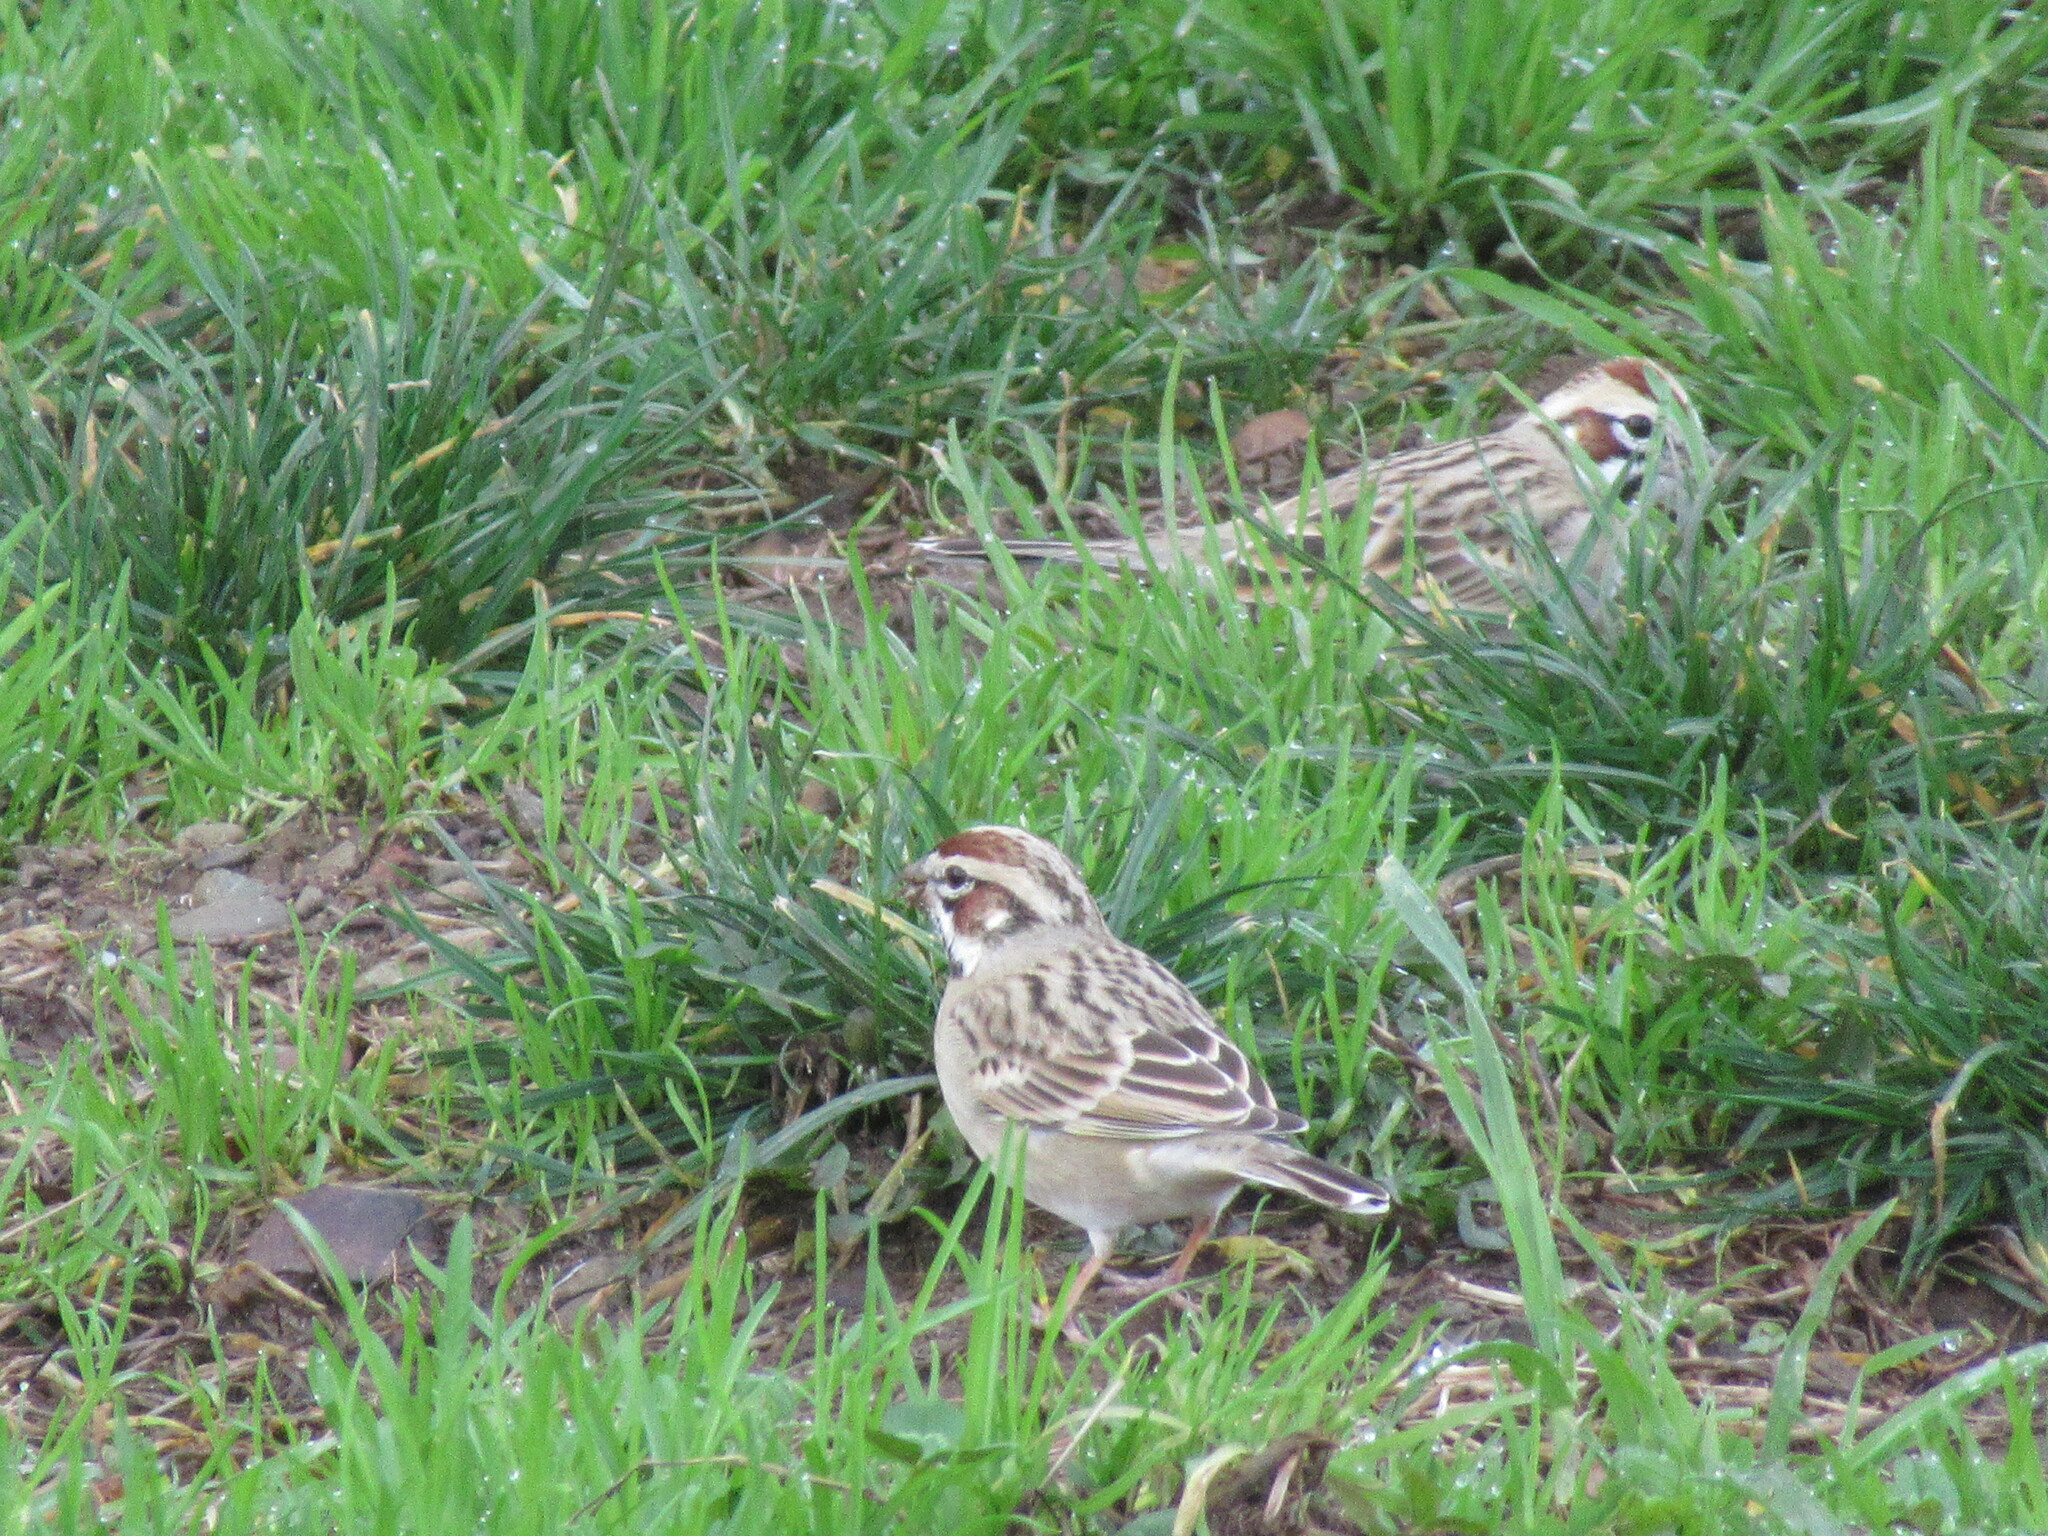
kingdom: Animalia
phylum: Chordata
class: Aves
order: Passeriformes
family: Passerellidae
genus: Chondestes
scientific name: Chondestes grammacus
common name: Lark sparrow
